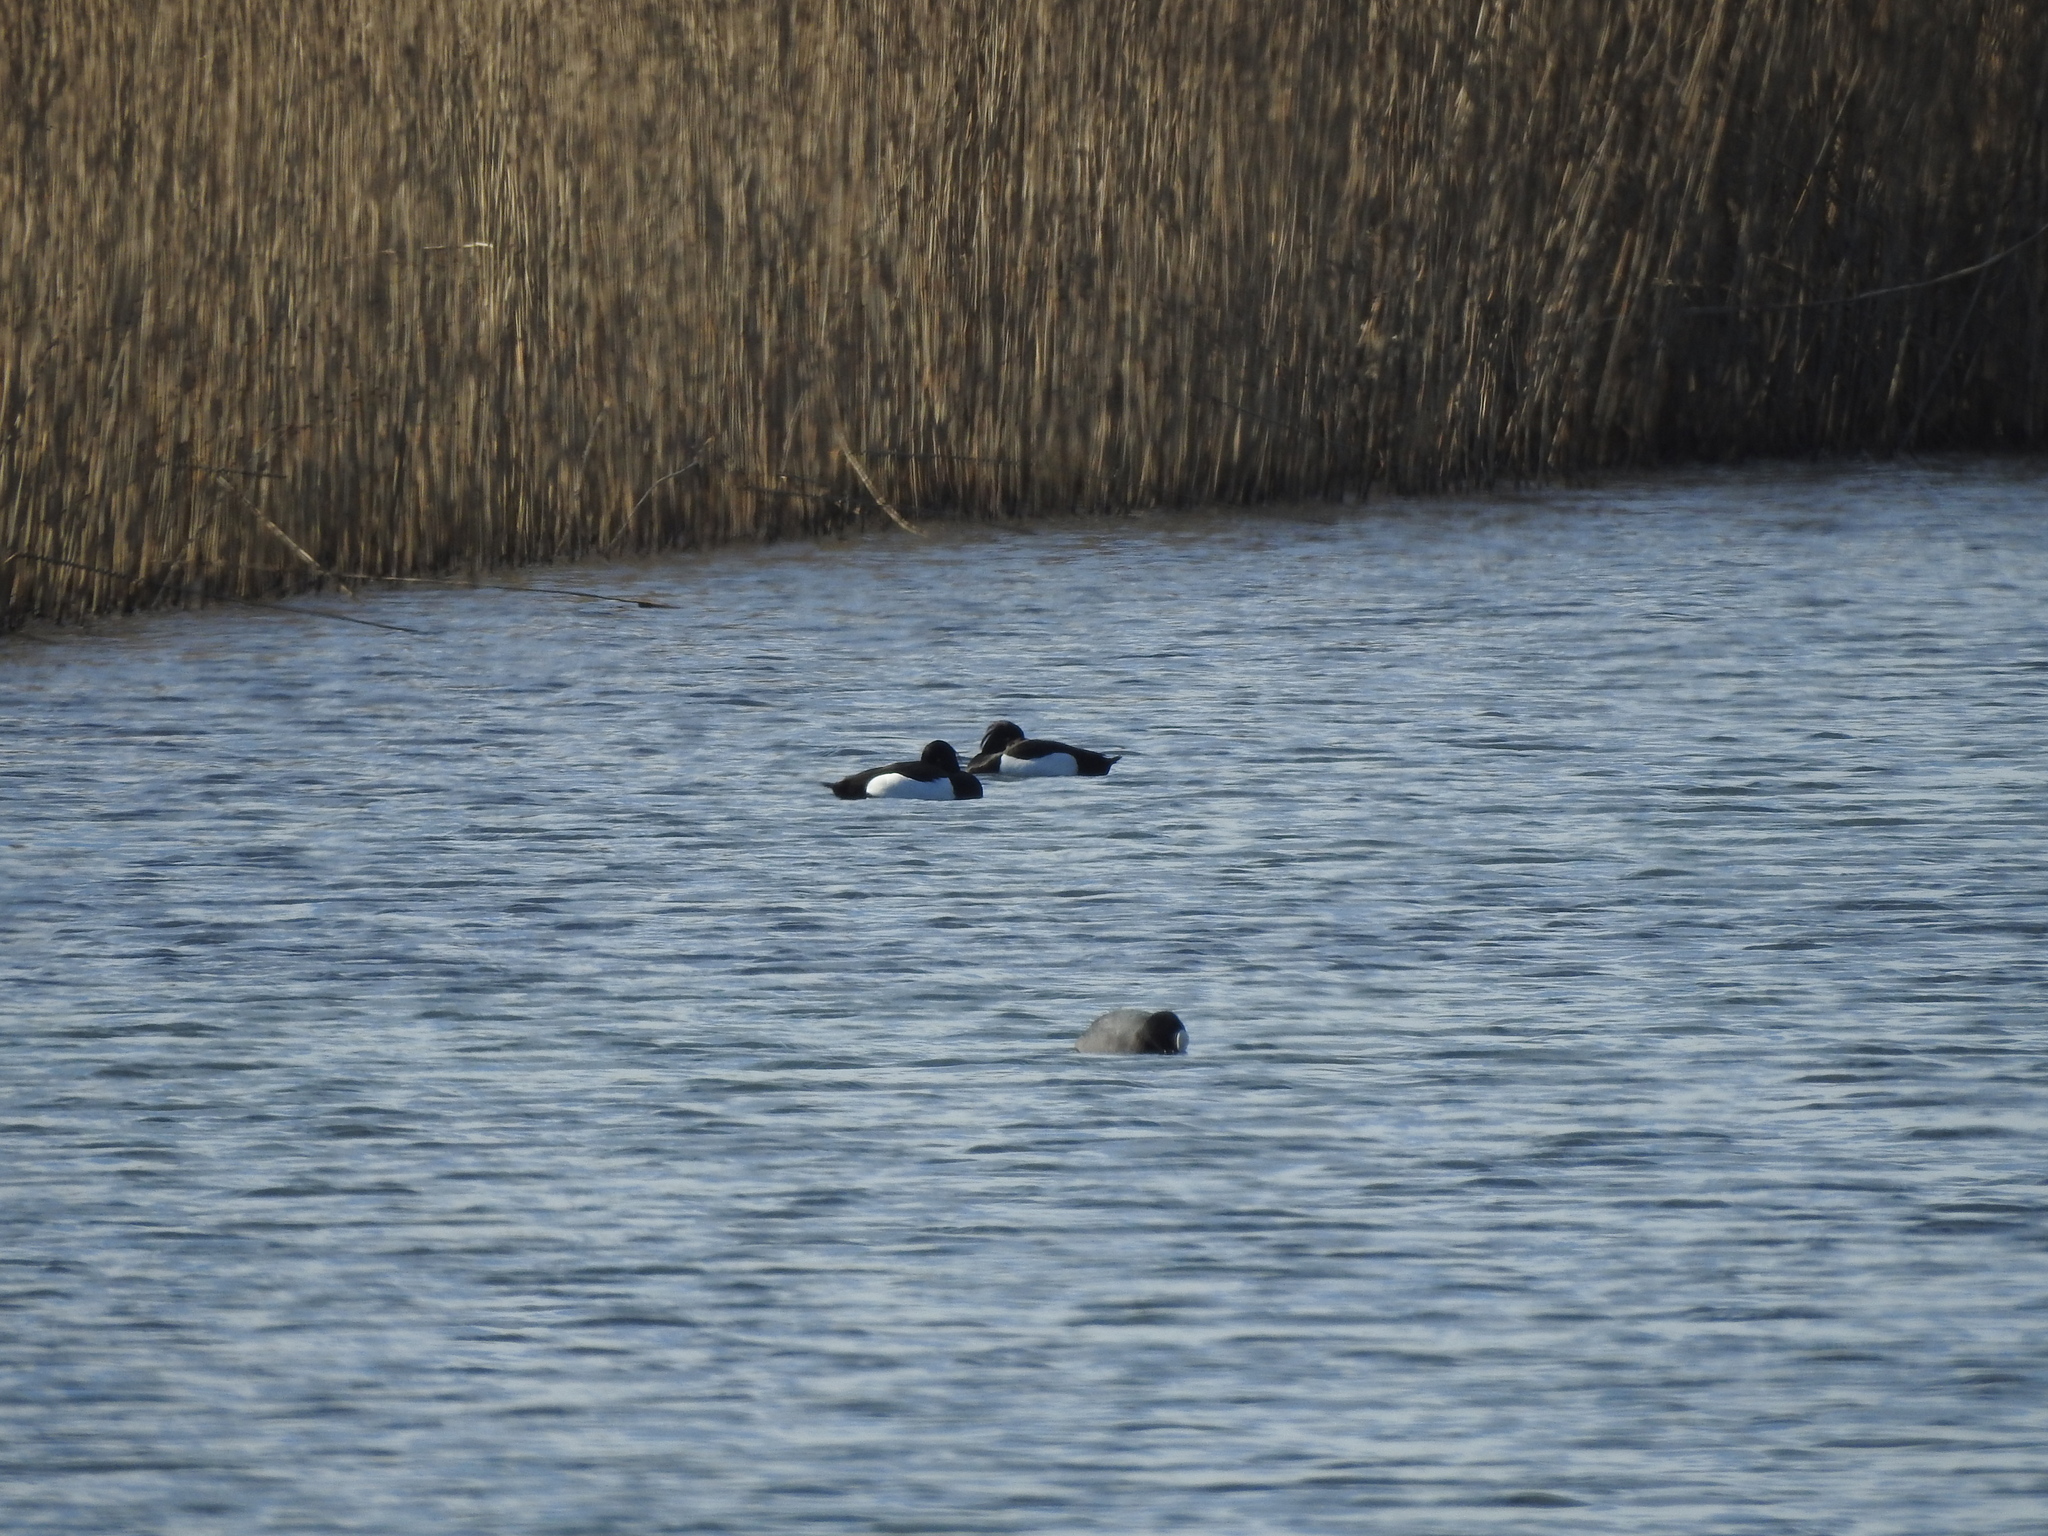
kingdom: Animalia
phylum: Chordata
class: Aves
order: Anseriformes
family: Anatidae
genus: Aythya
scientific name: Aythya fuligula
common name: Tufted duck
